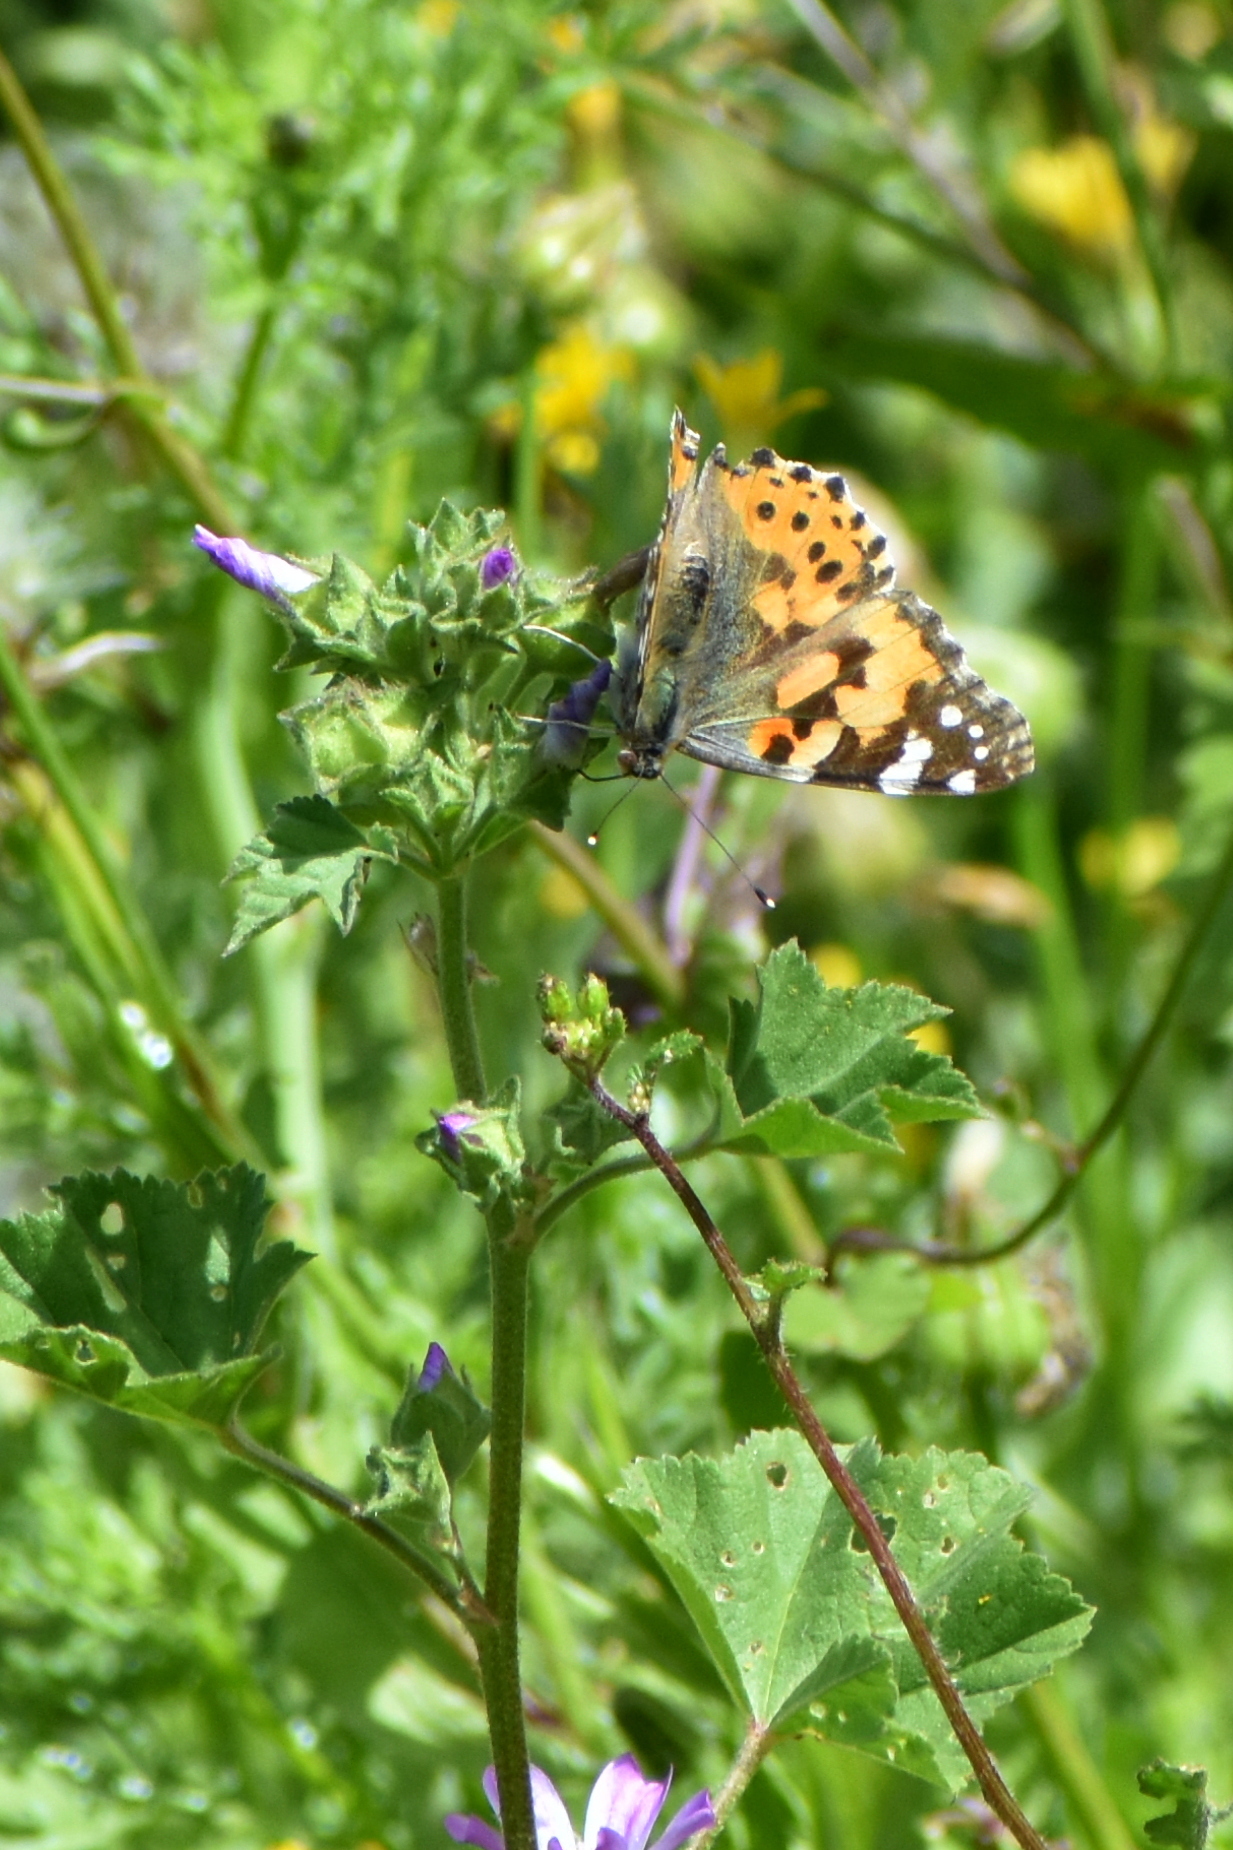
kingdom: Animalia
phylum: Arthropoda
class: Insecta
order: Lepidoptera
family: Nymphalidae
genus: Vanessa
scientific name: Vanessa cardui
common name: Painted lady
